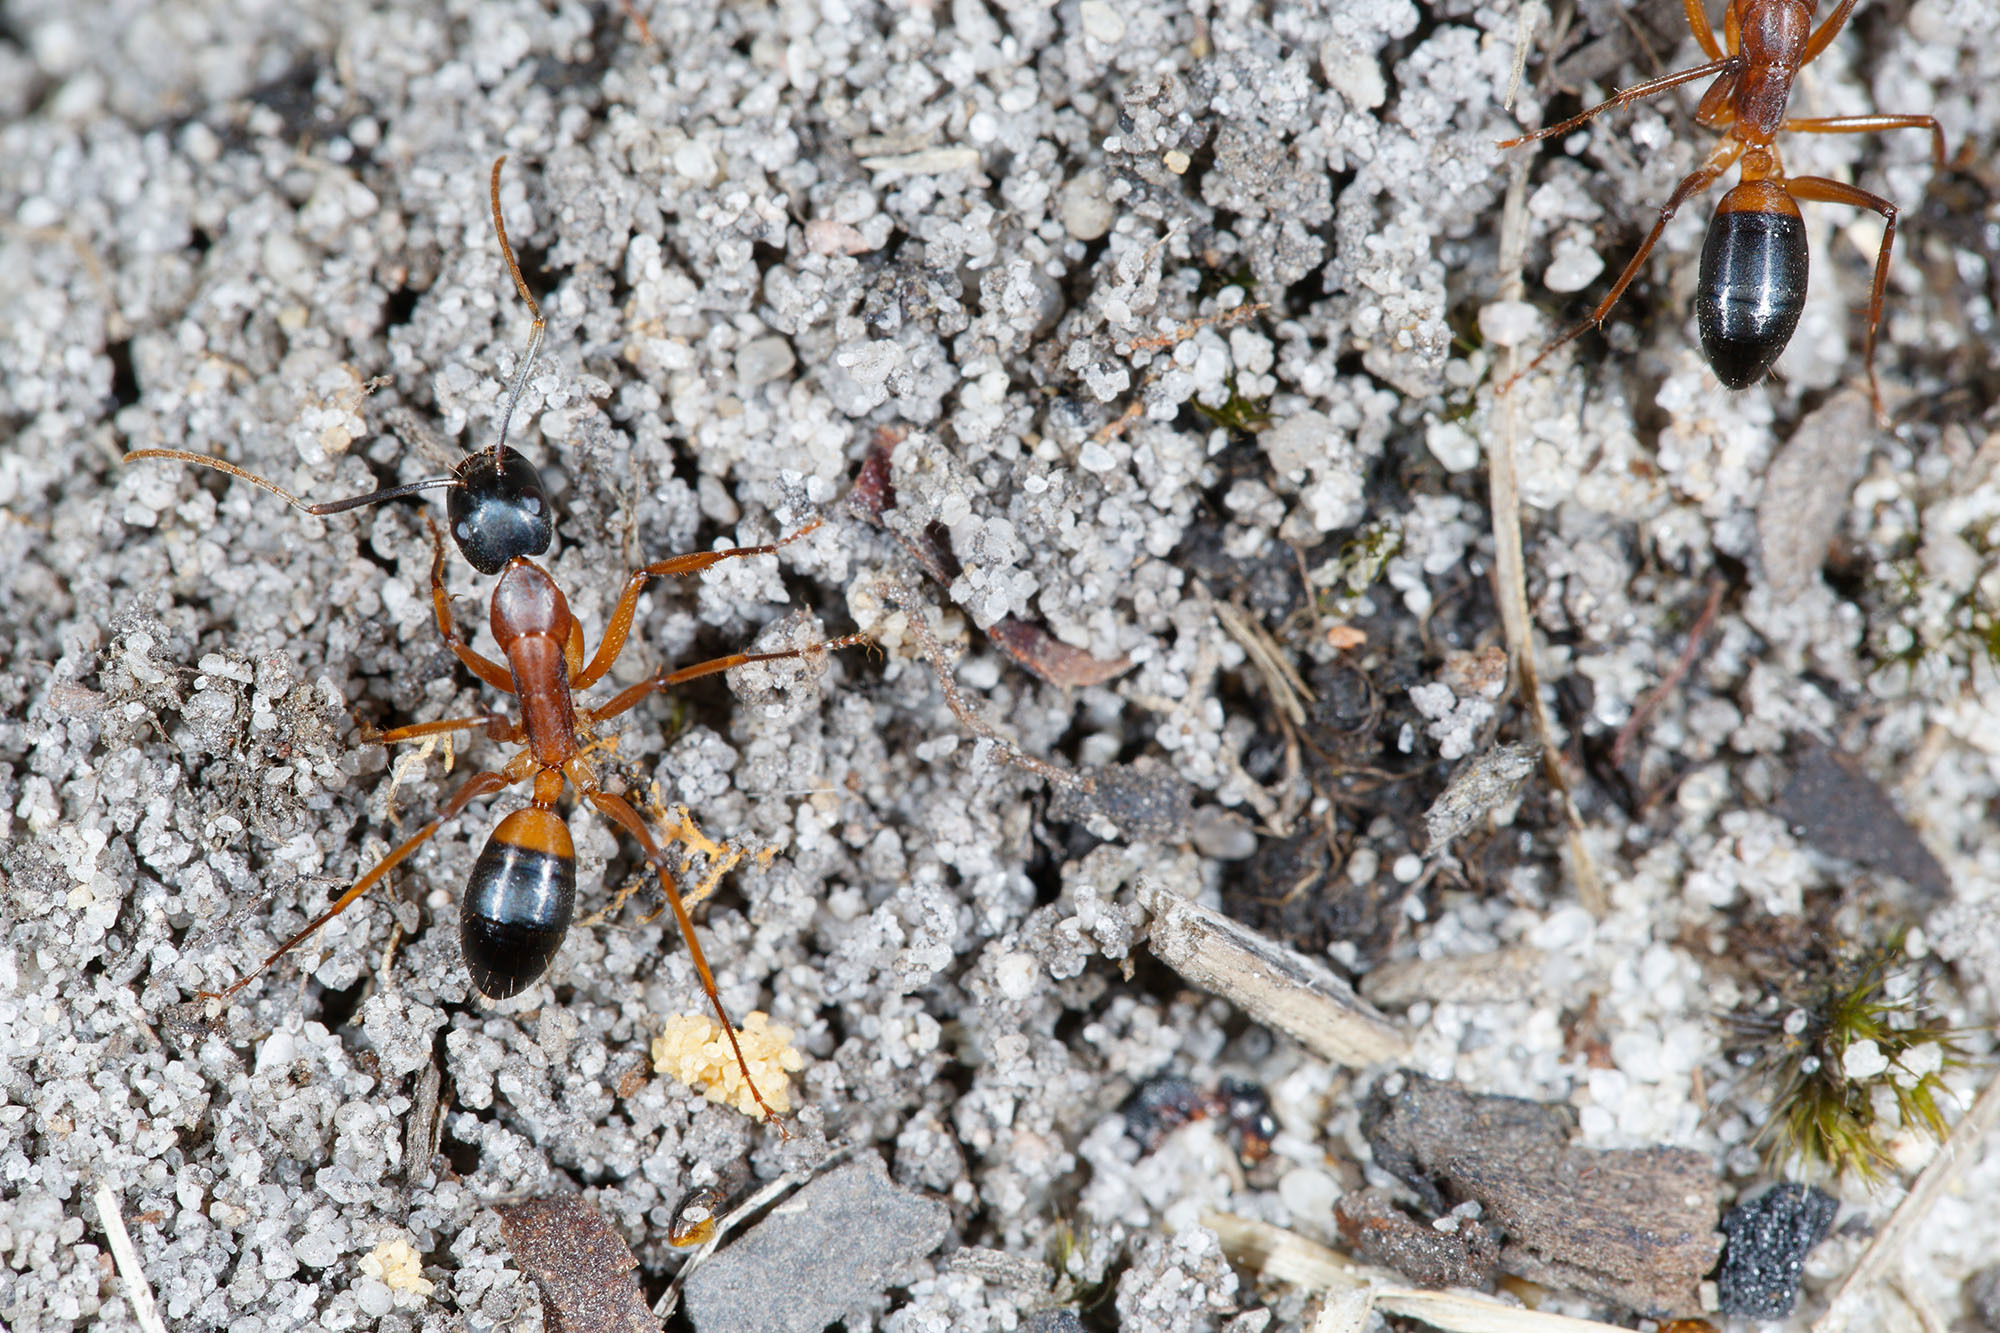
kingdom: Animalia
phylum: Arthropoda
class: Insecta
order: Hymenoptera
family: Formicidae
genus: Camponotus
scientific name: Camponotus consobrinus
